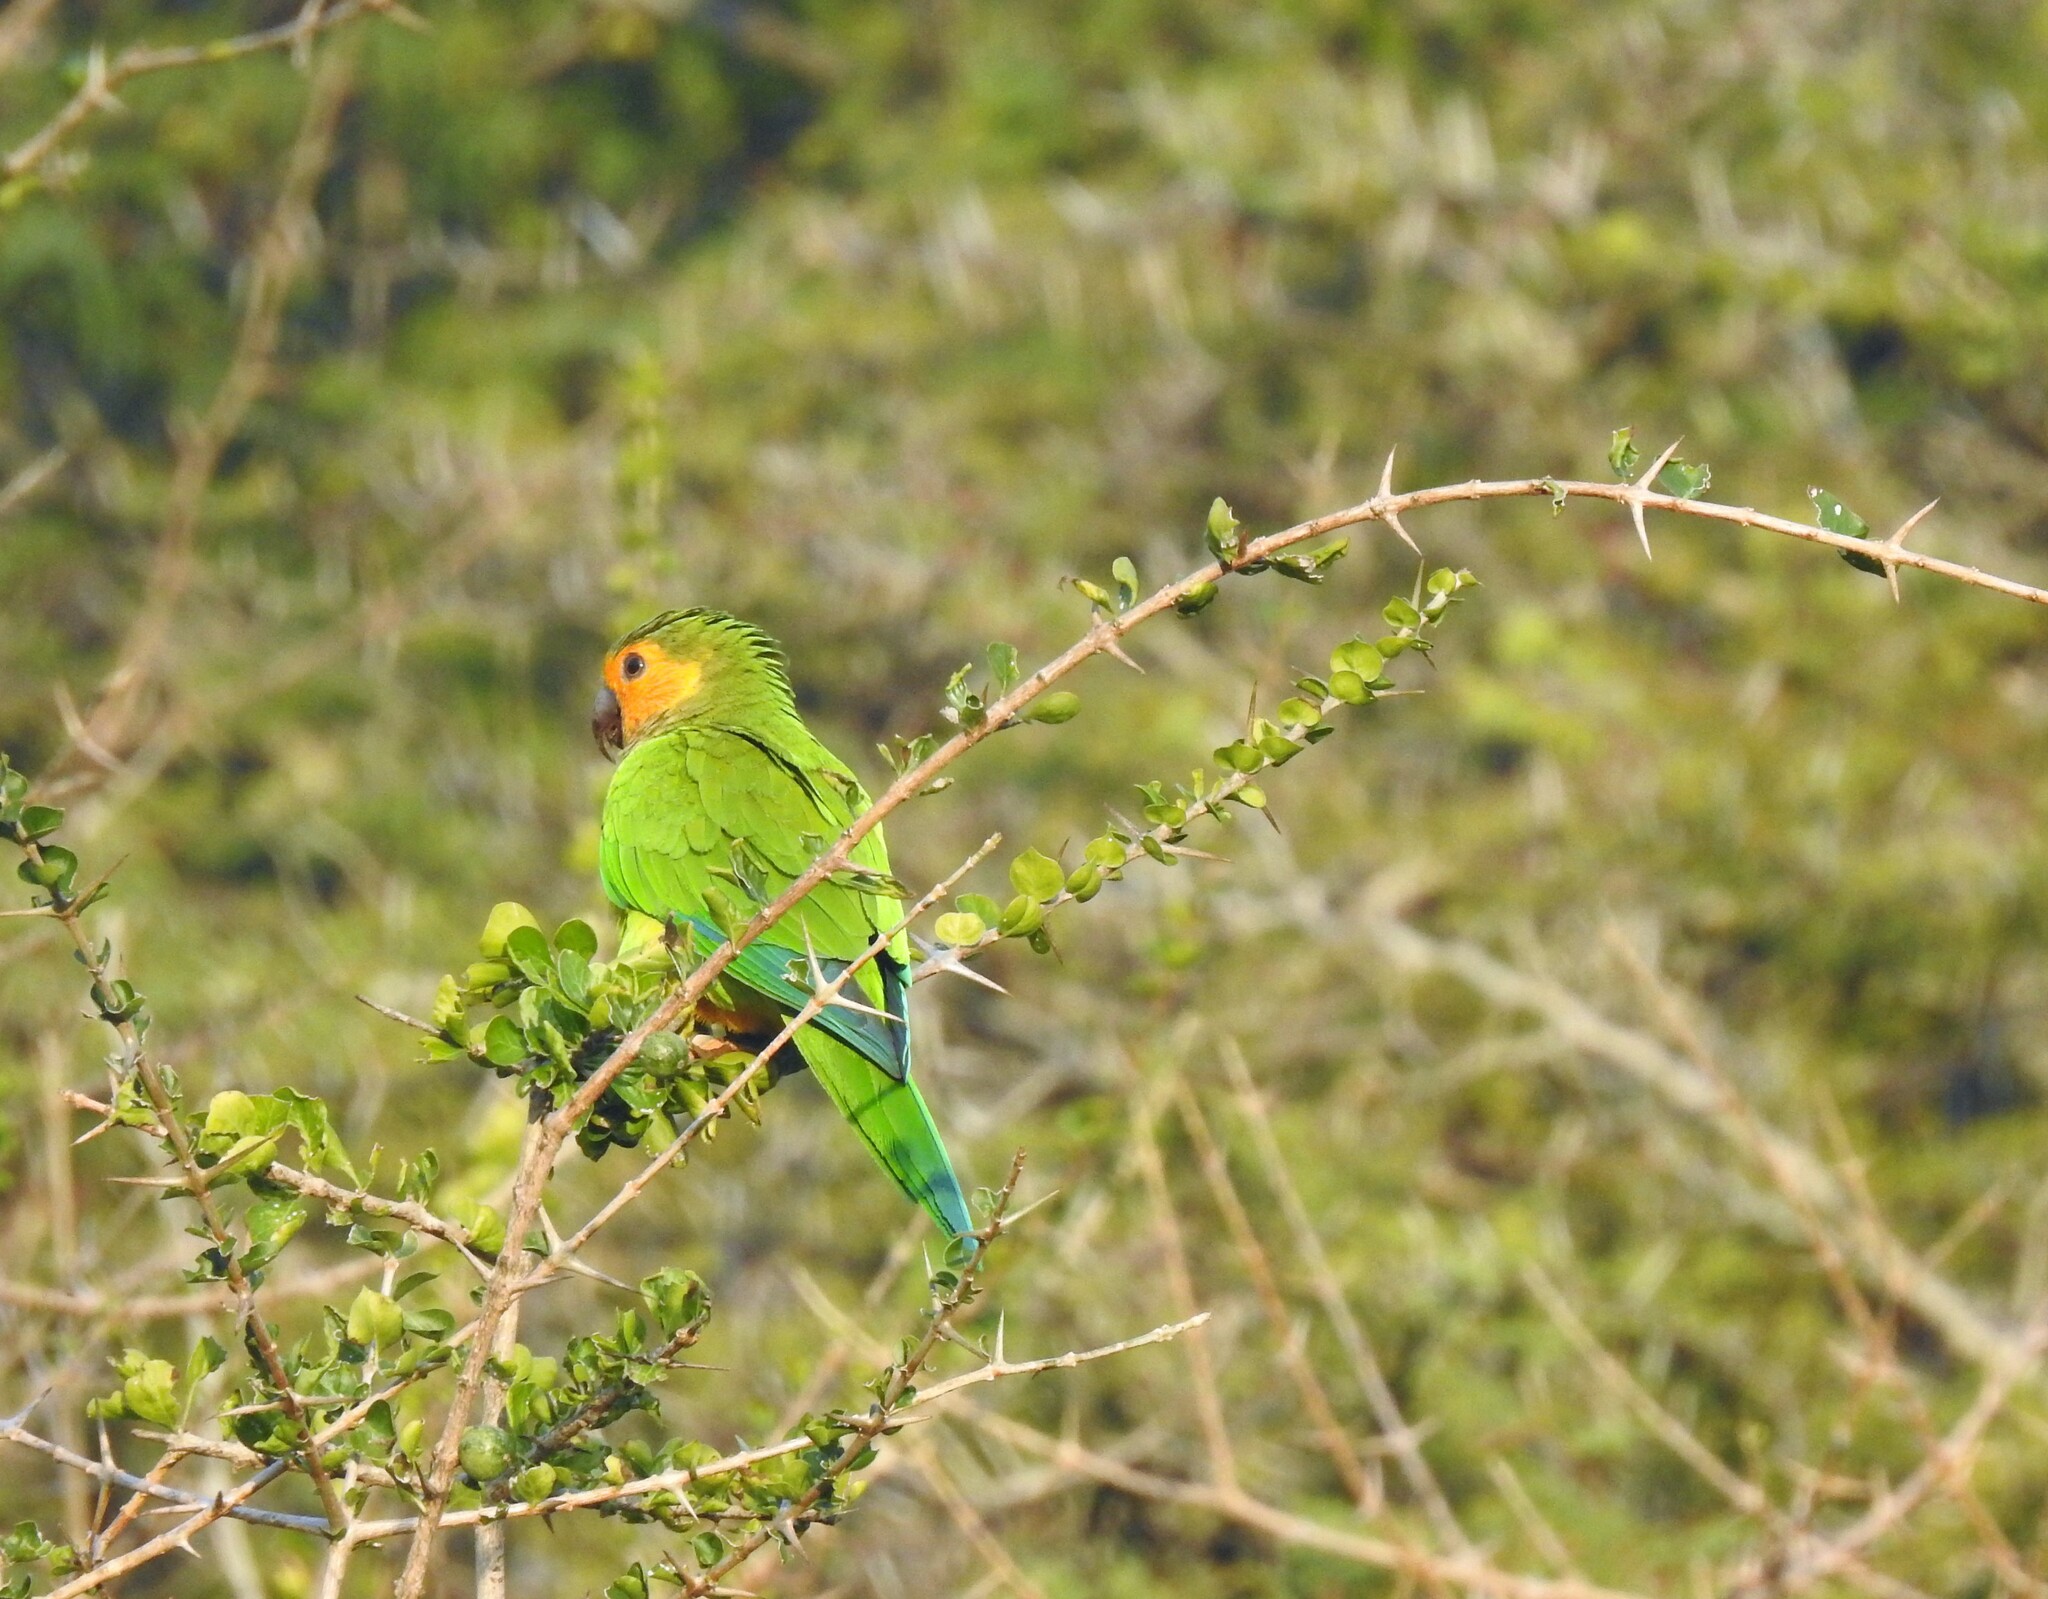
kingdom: Animalia
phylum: Chordata
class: Aves
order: Psittaciformes
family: Psittacidae
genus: Aratinga
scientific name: Aratinga pertinax
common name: Brown-throated parakeet
